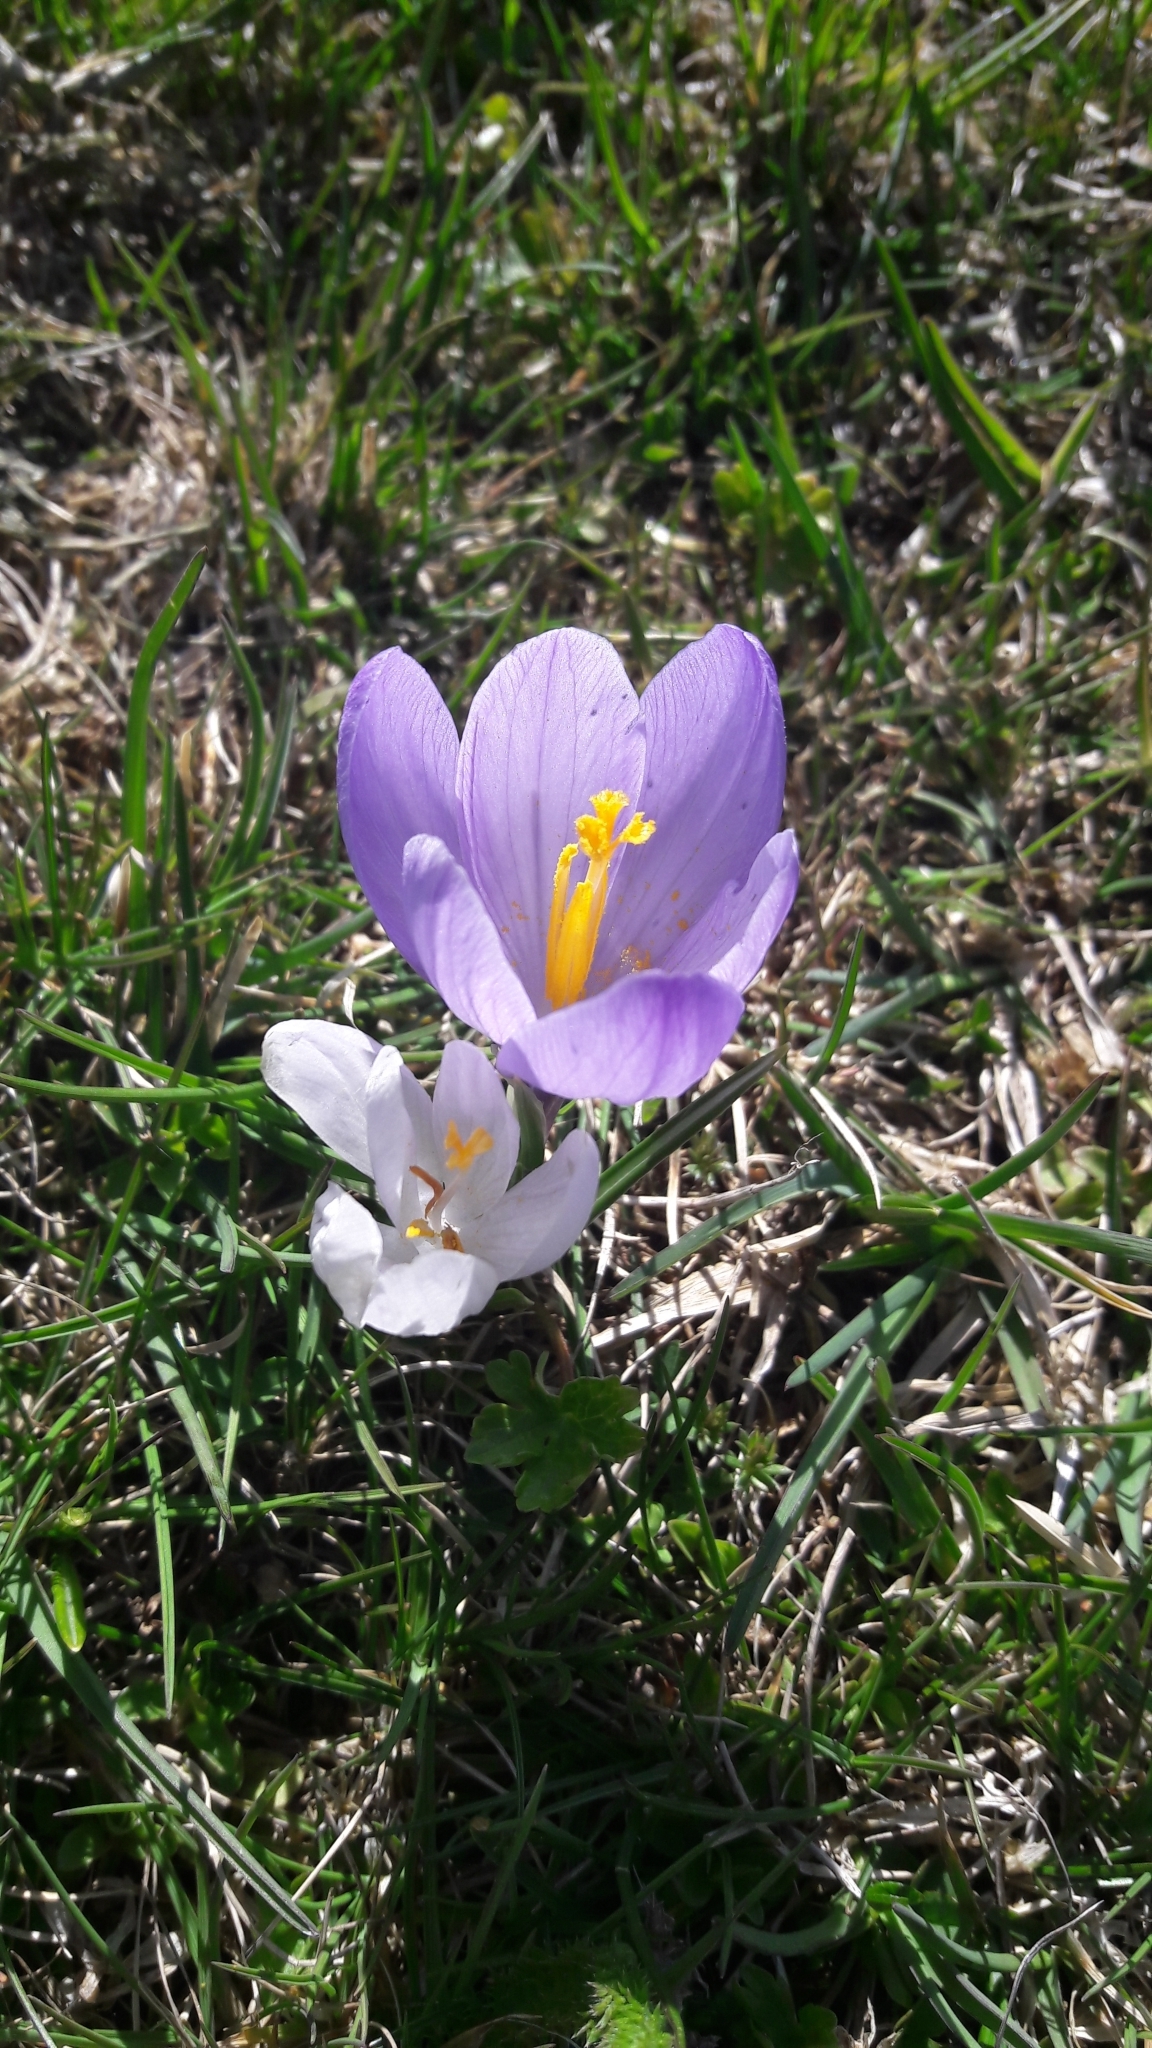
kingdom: Plantae
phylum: Tracheophyta
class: Liliopsida
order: Asparagales
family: Iridaceae
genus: Crocus
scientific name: Crocus neapolitanus
